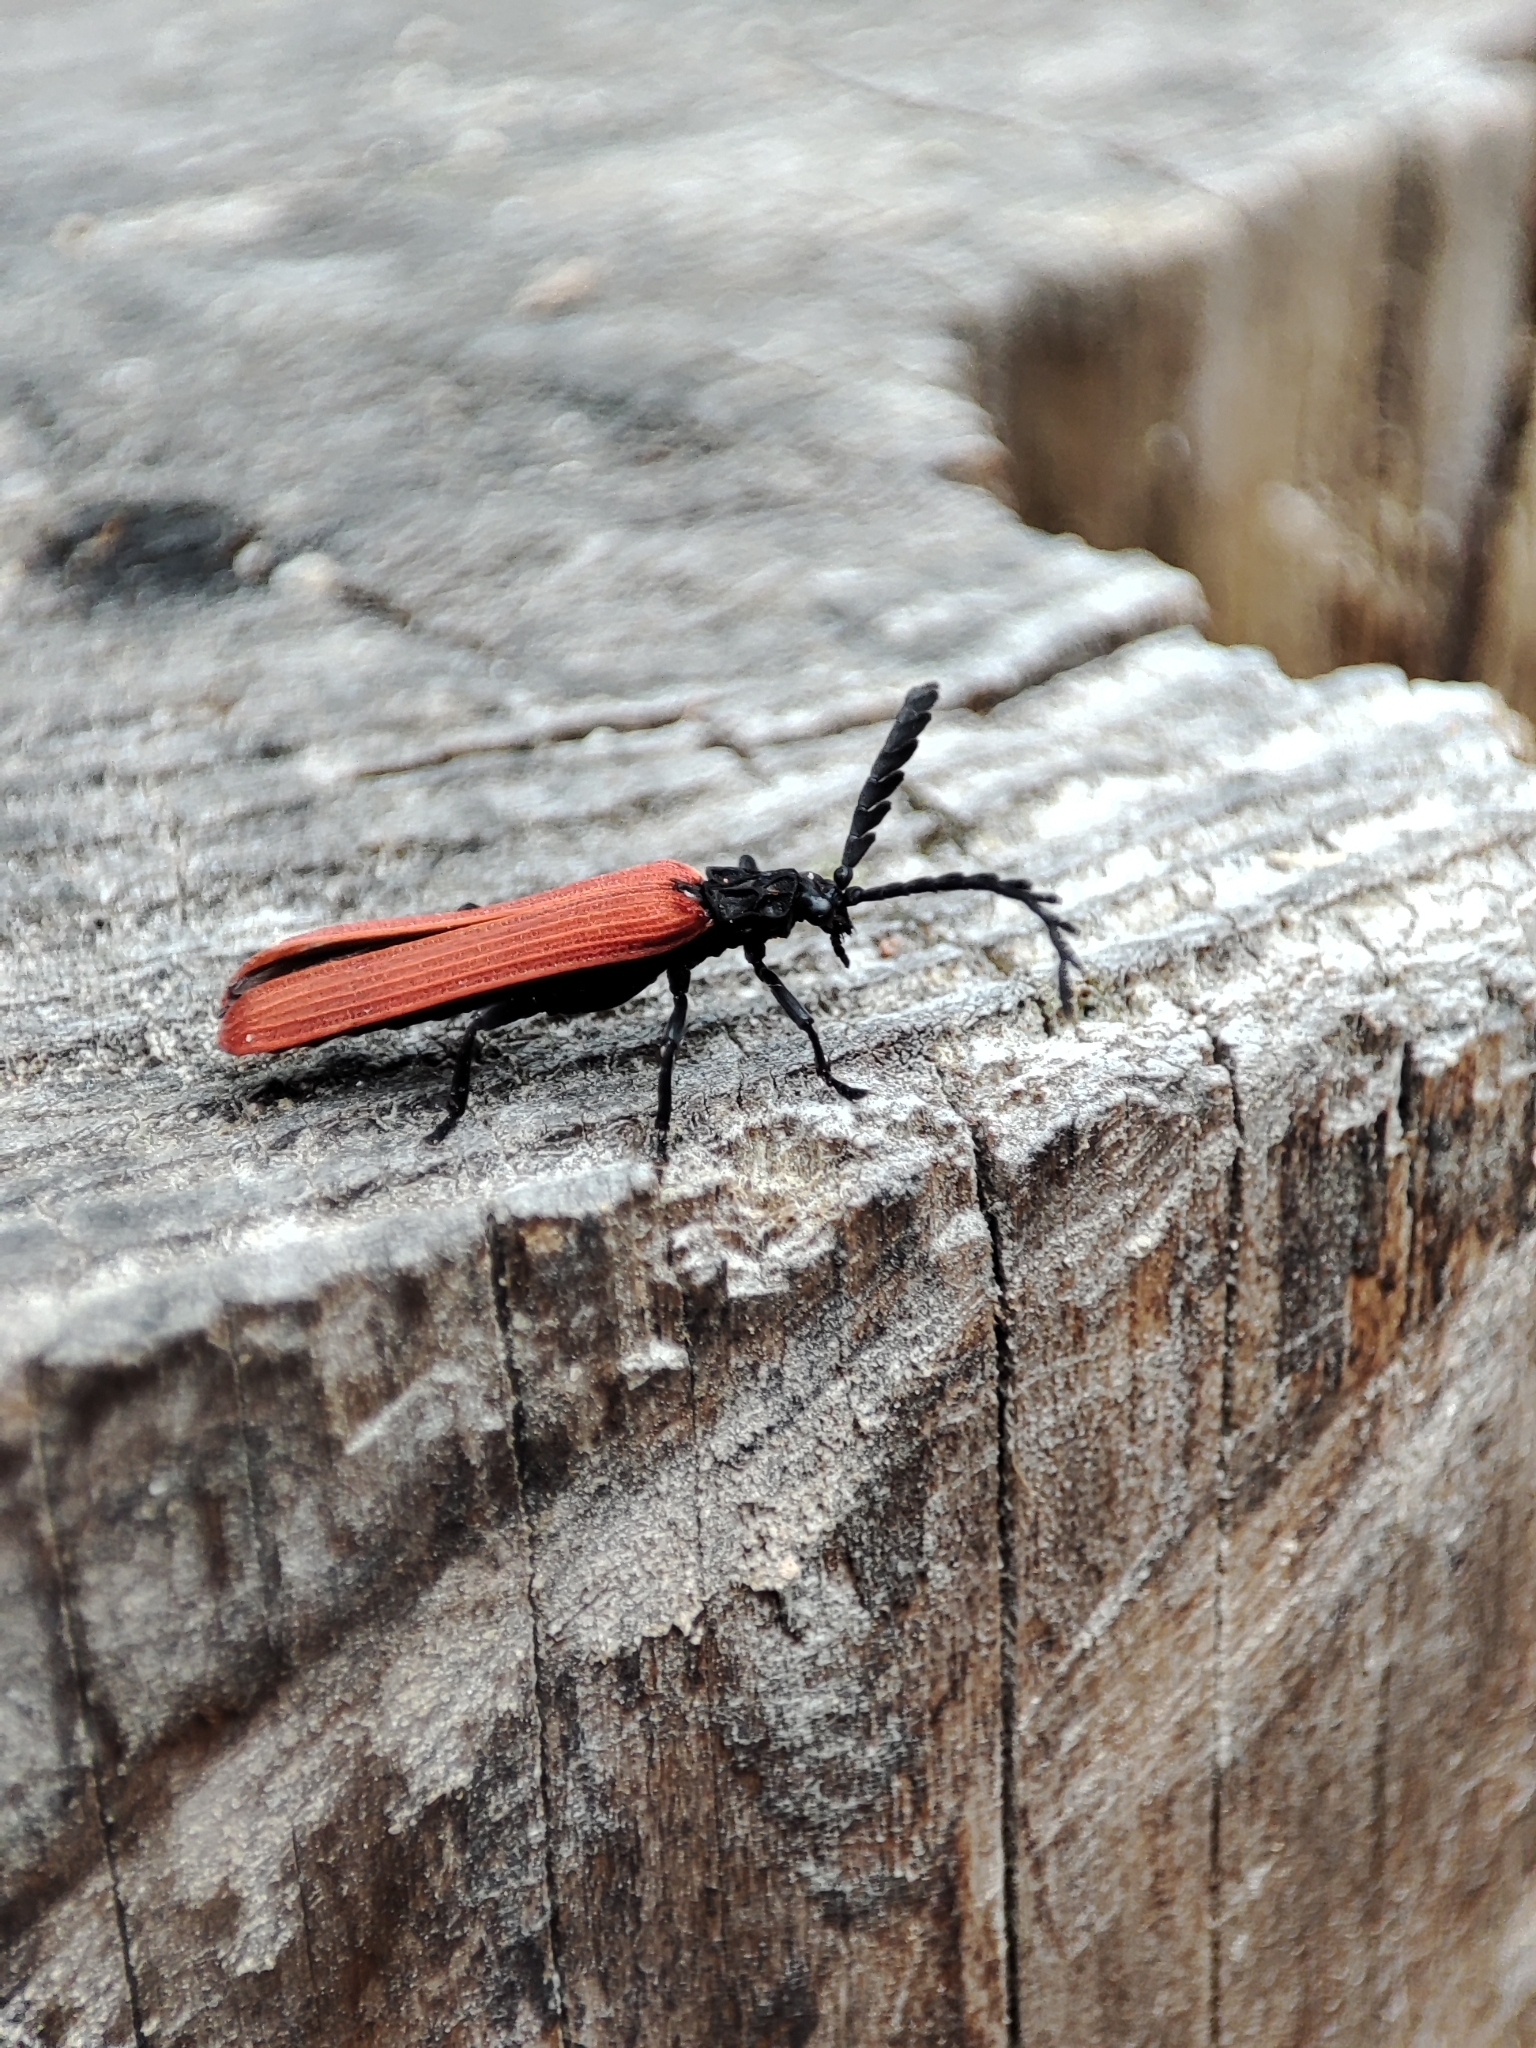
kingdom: Animalia
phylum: Arthropoda
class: Insecta
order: Coleoptera
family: Lycidae
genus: Porrostoma
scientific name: Porrostoma rufipenne
